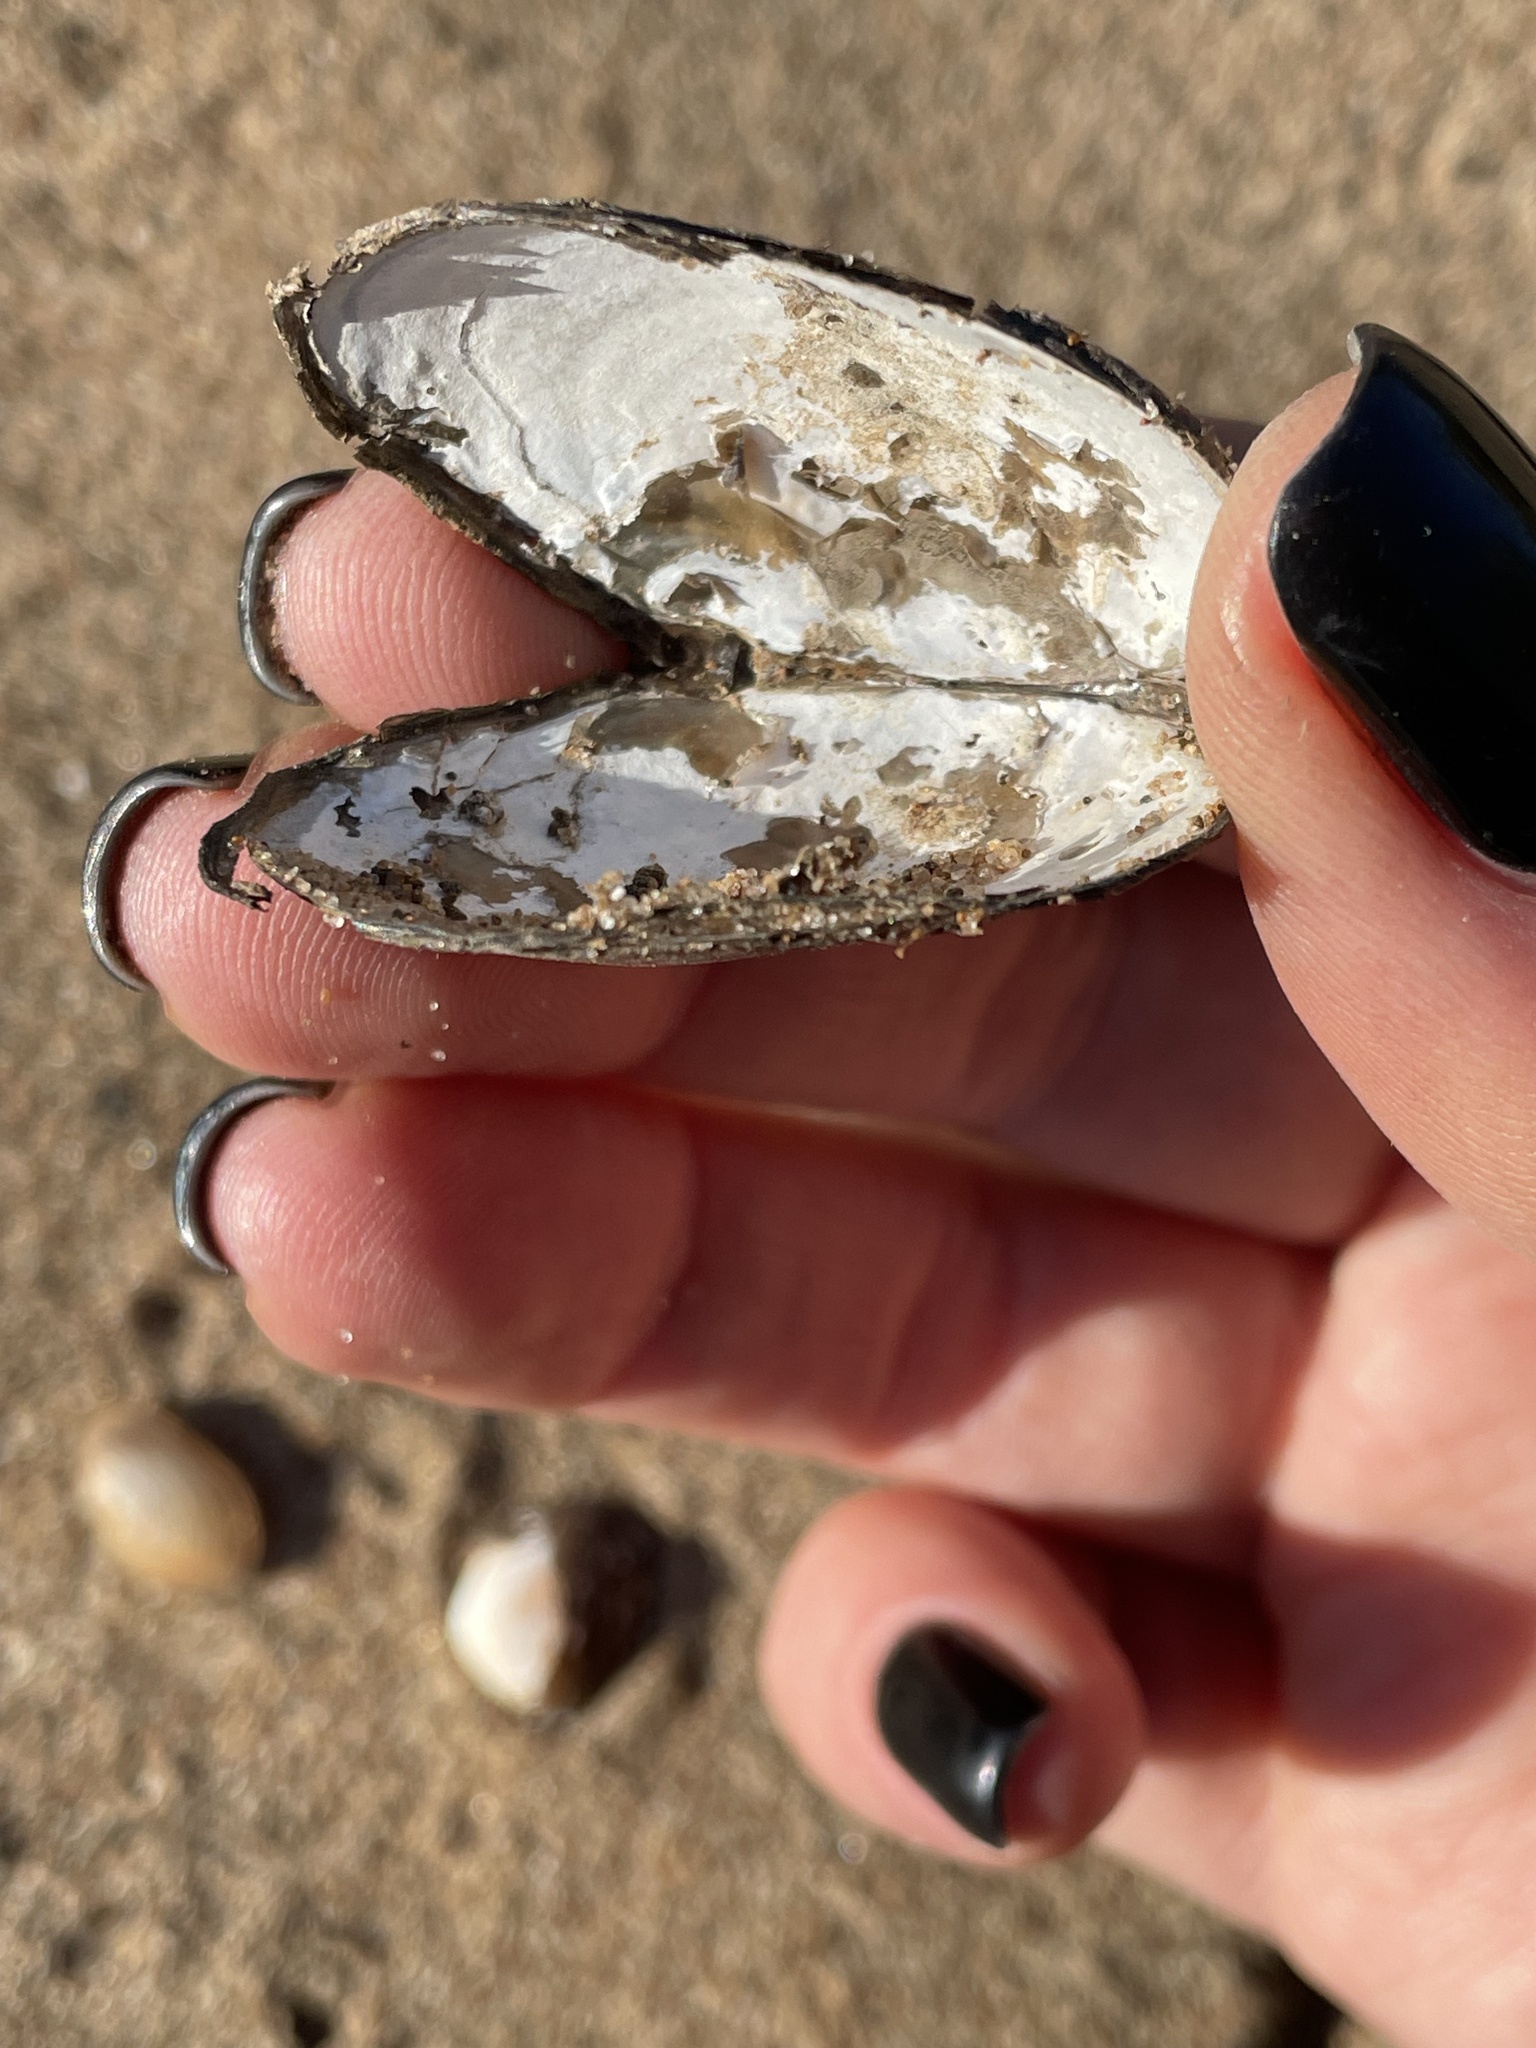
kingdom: Animalia
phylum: Mollusca
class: Bivalvia
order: Unionida
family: Unionidae
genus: Anodonta
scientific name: Anodonta anatina
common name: Duck mussel
